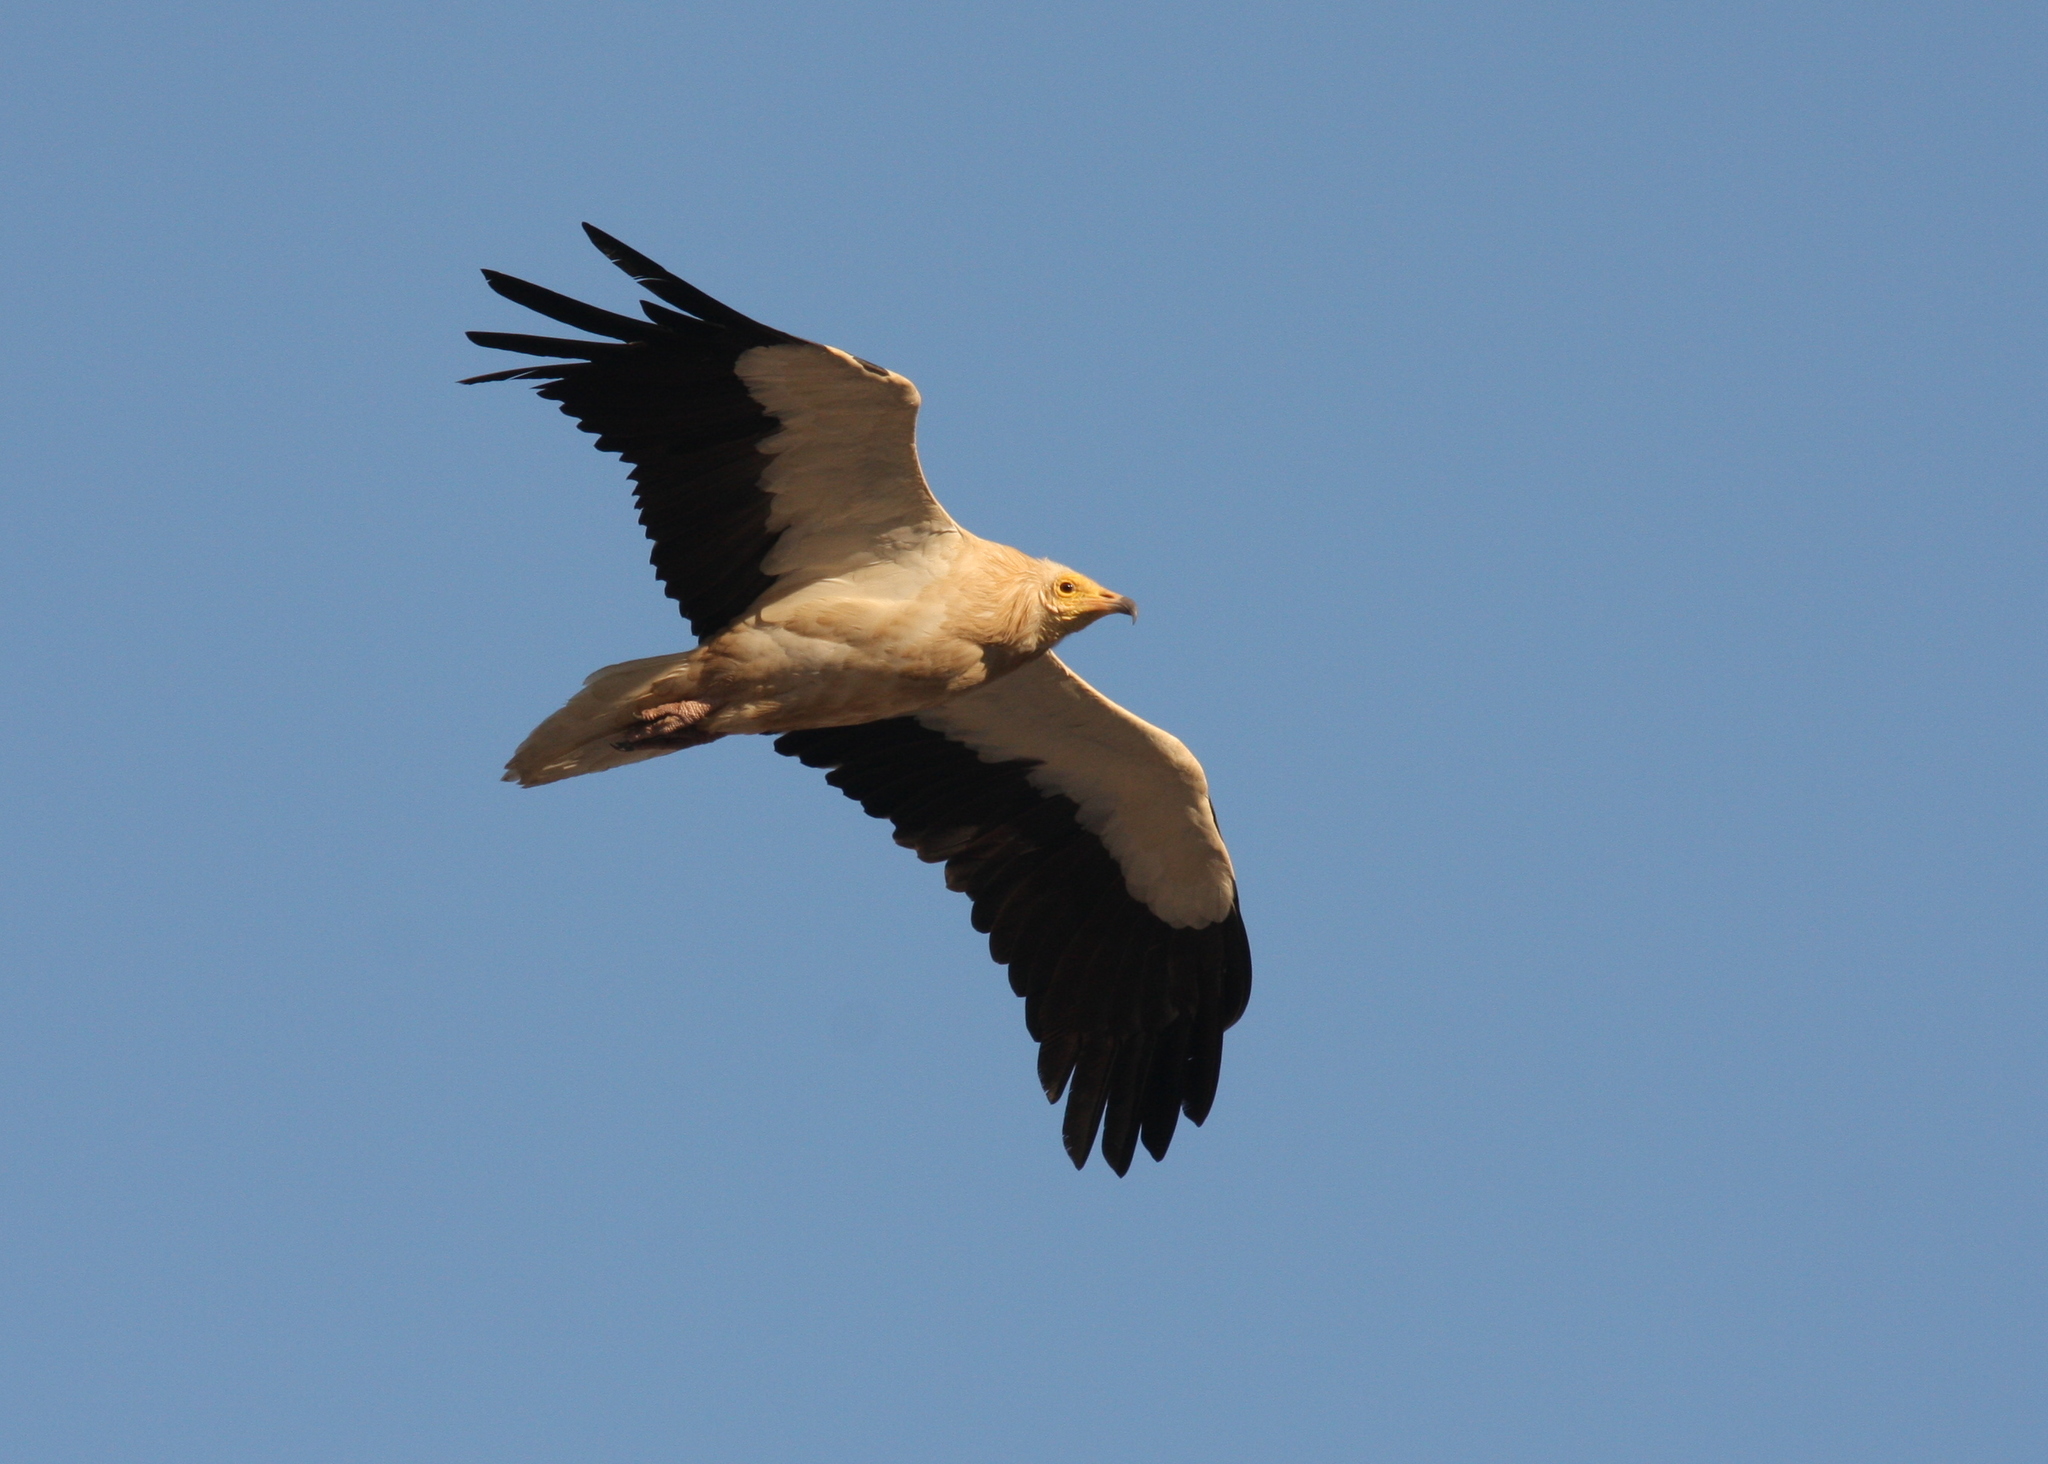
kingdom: Animalia
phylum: Chordata
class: Aves
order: Accipitriformes
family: Accipitridae
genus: Neophron
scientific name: Neophron percnopterus
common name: Egyptian vulture
